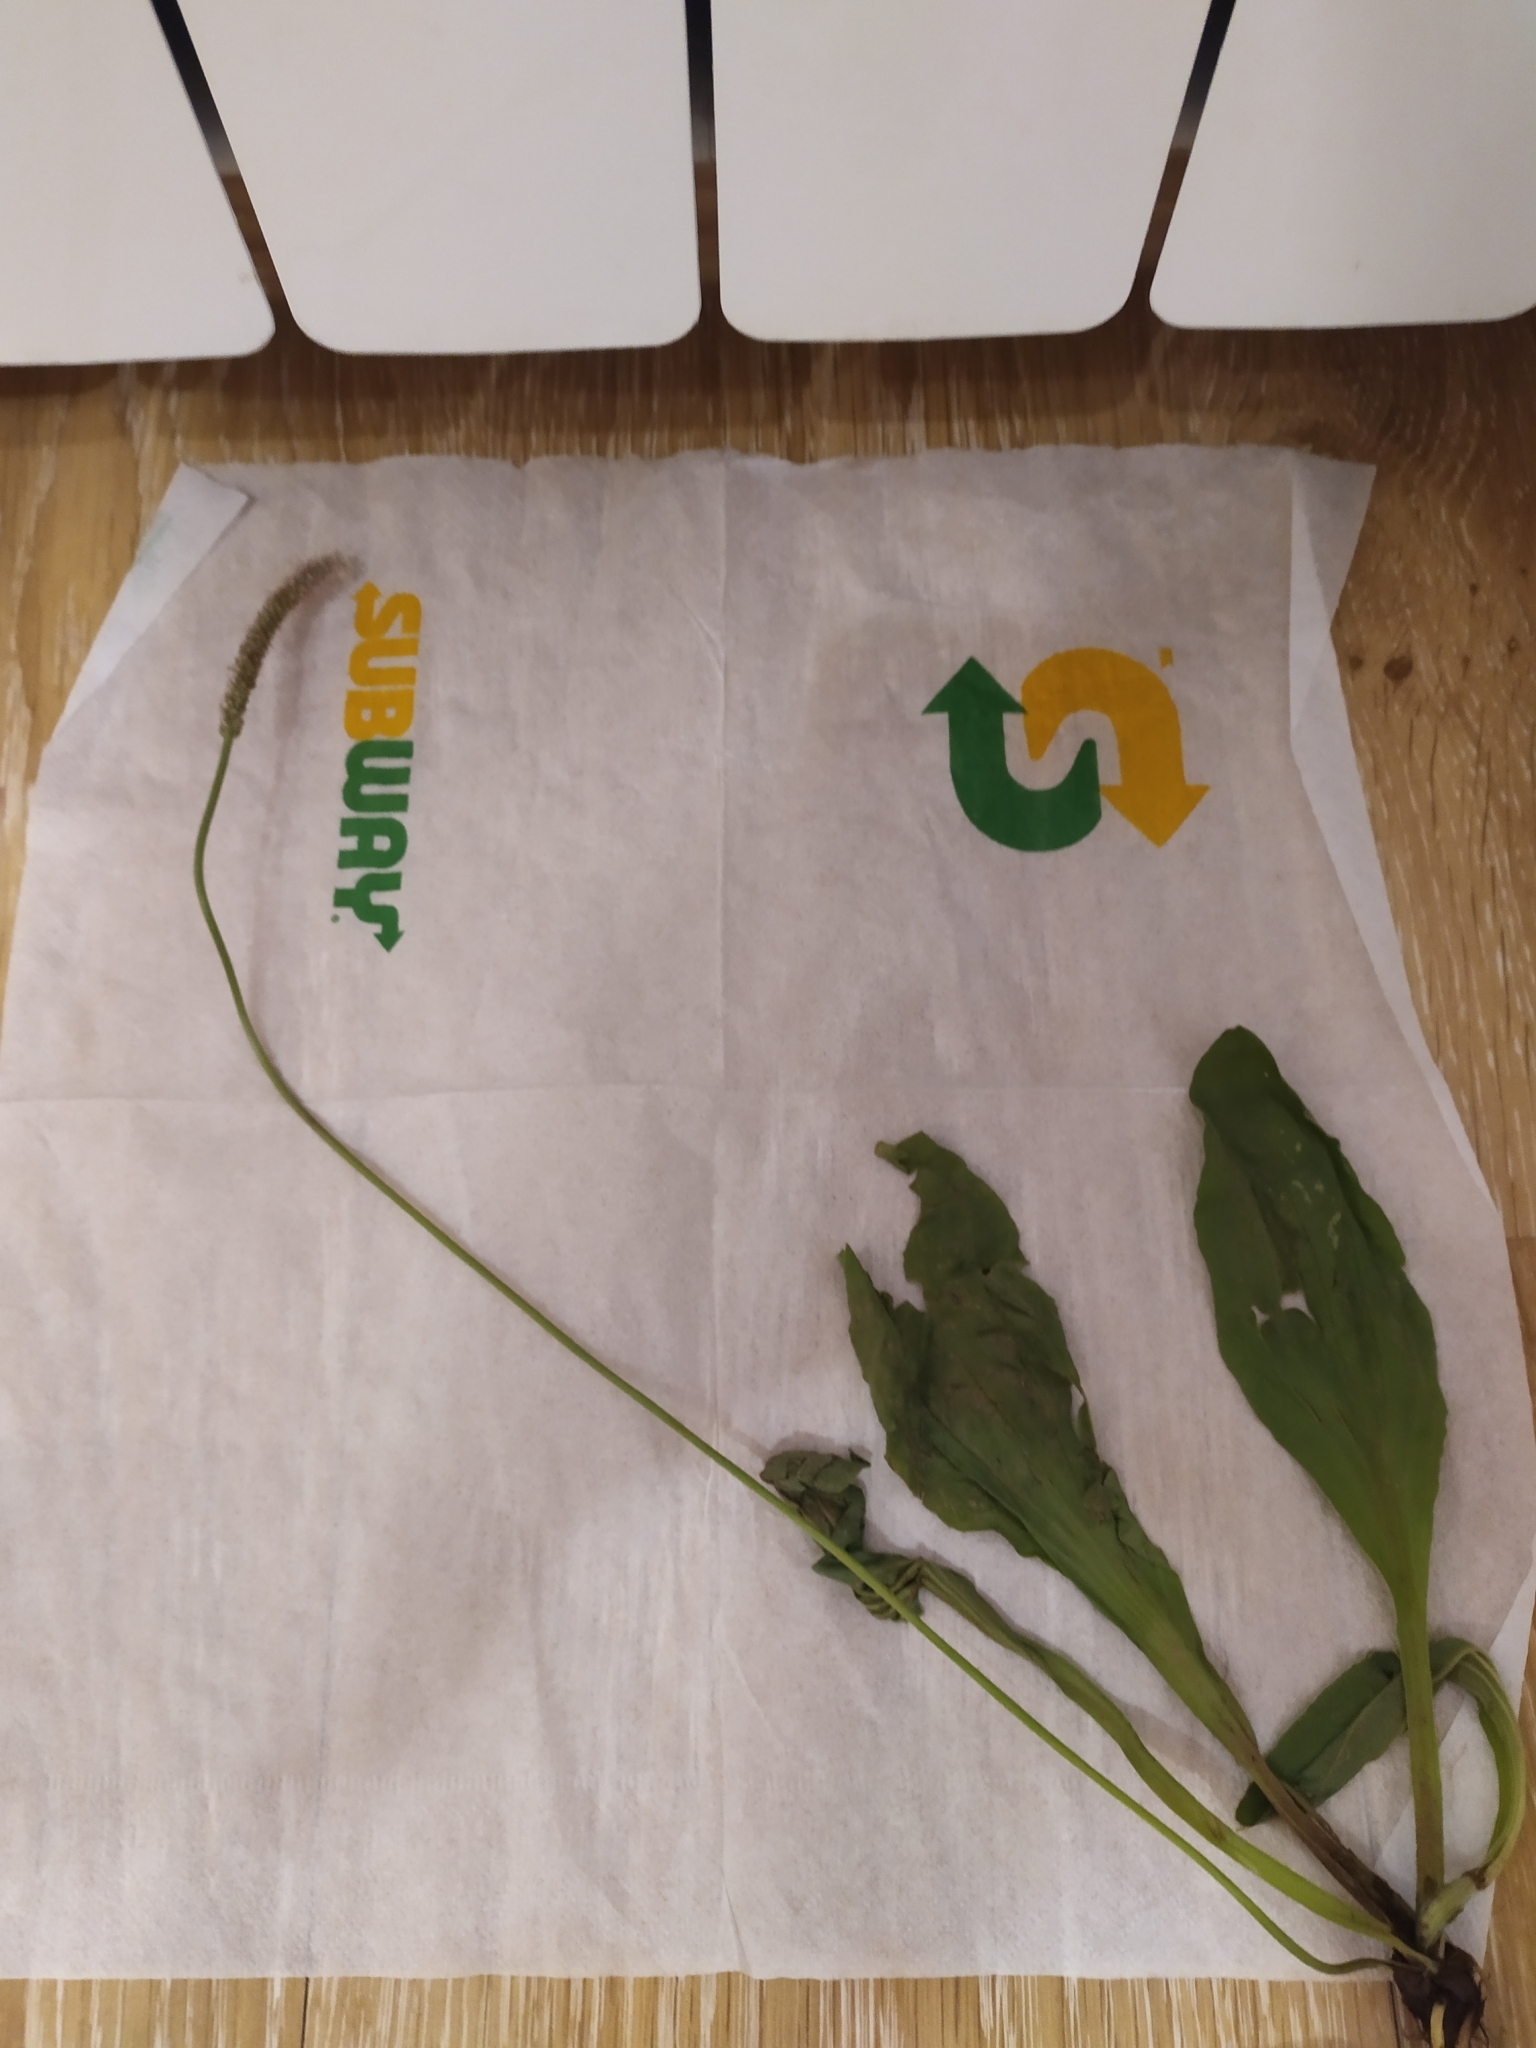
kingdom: Plantae
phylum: Tracheophyta
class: Magnoliopsida
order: Lamiales
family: Plantaginaceae
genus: Plantago
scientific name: Plantago urvillei
